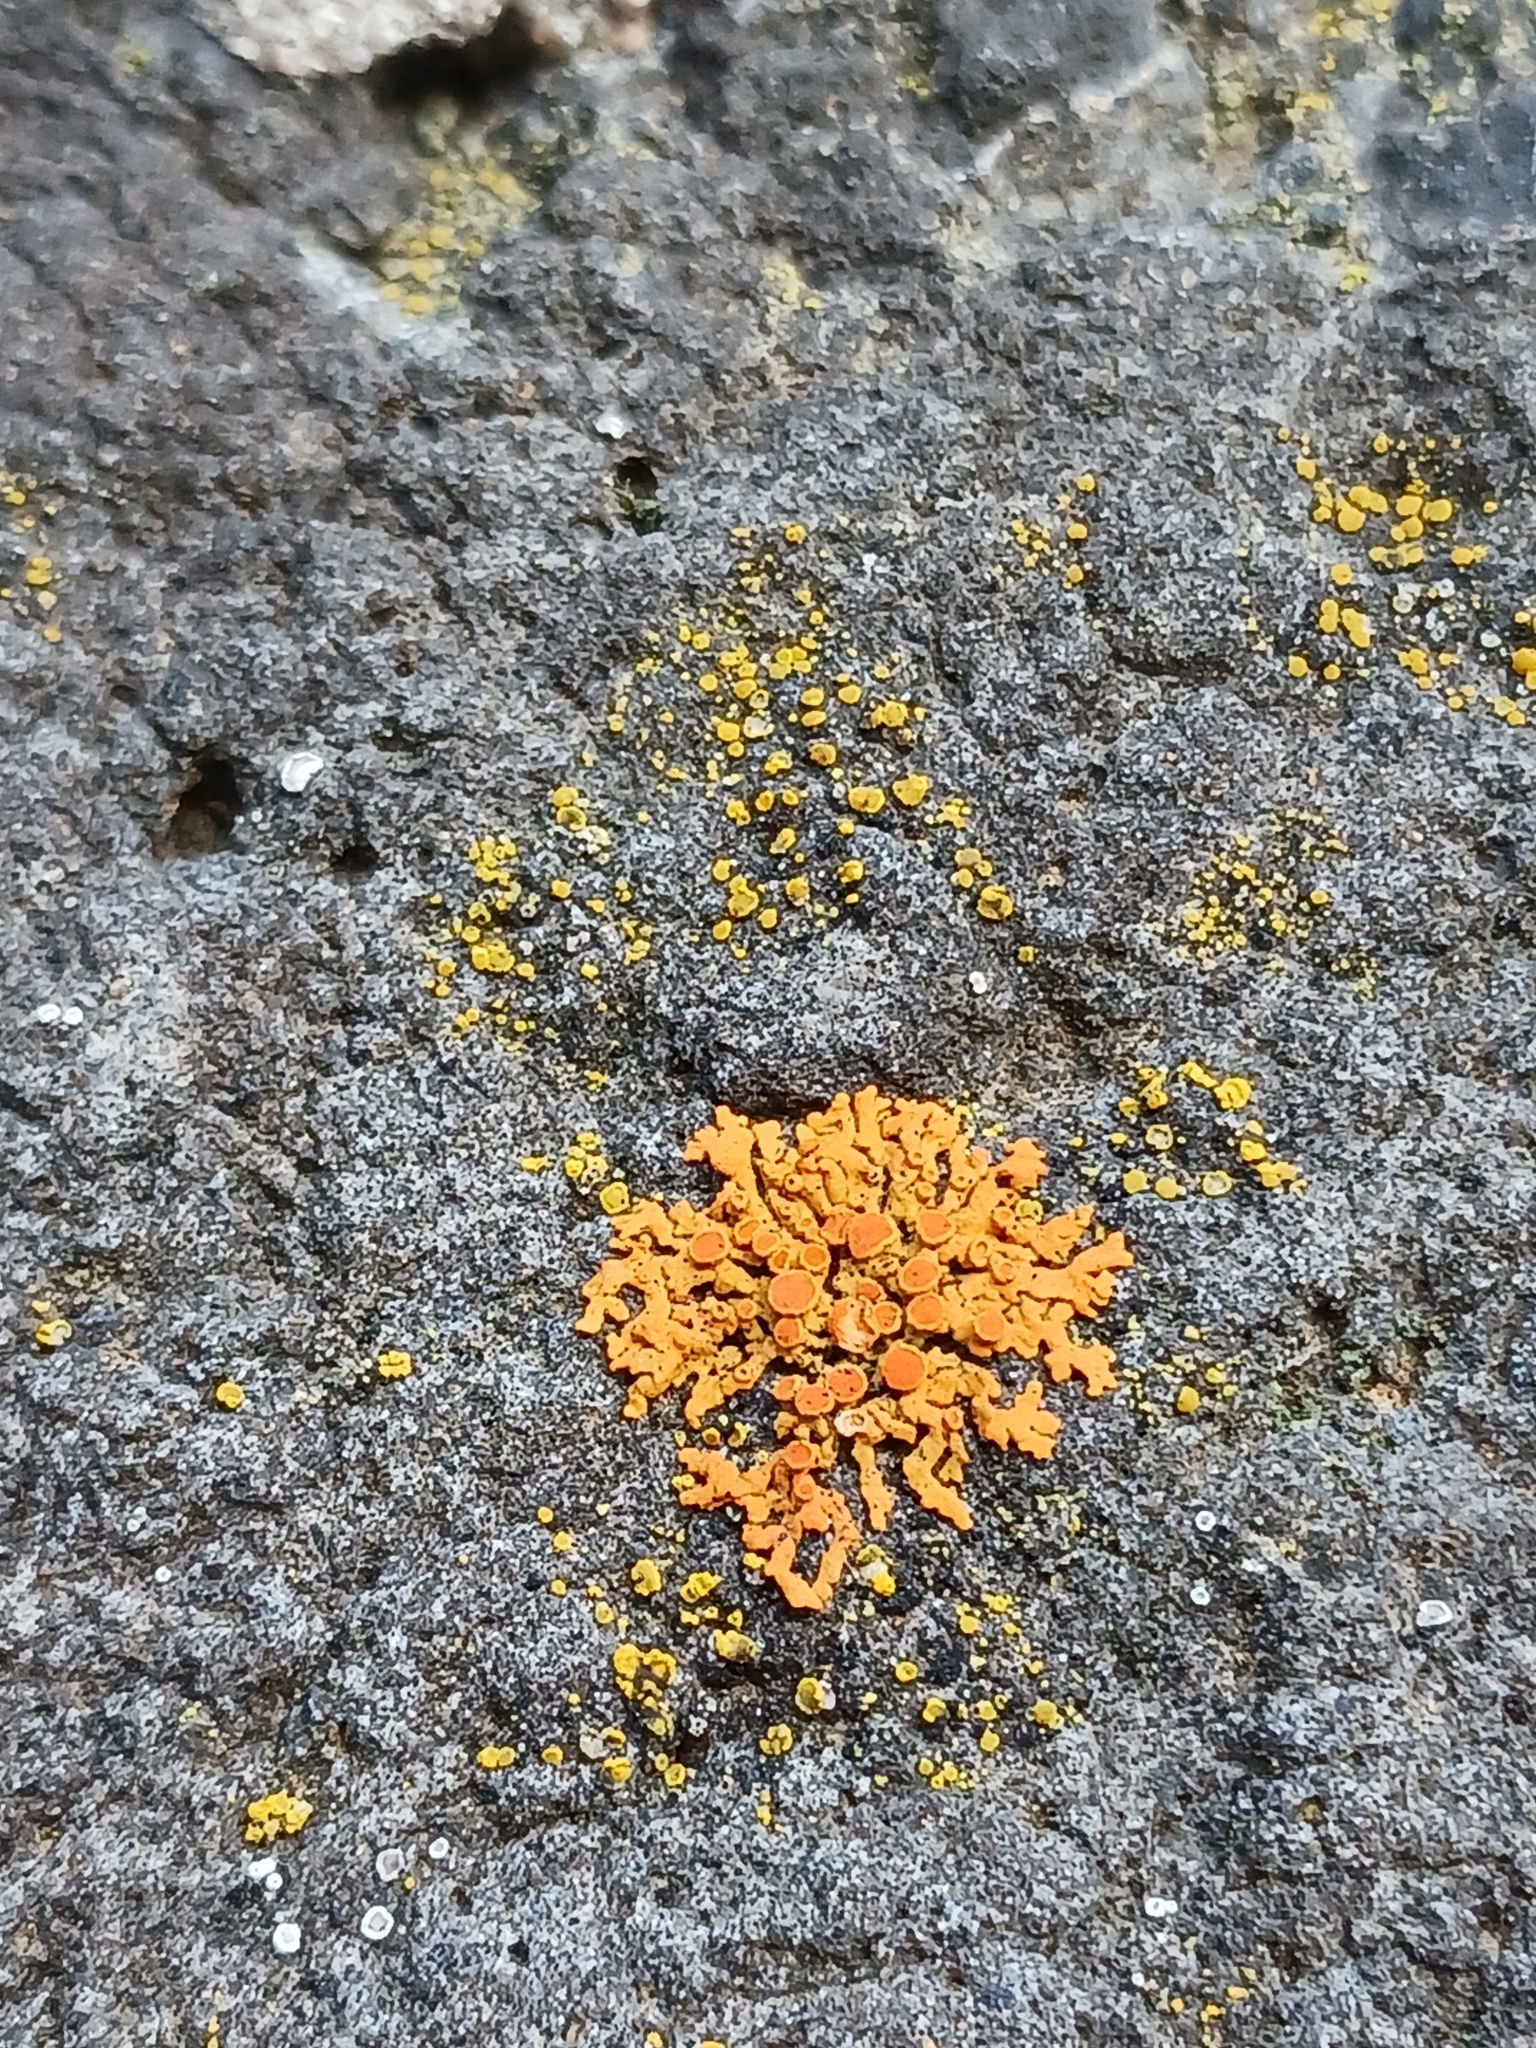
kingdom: Fungi
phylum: Ascomycota
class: Lecanoromycetes
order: Teloschistales
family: Teloschistaceae
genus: Xanthoria
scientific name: Xanthoria elegans
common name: Elegant sunburst lichen
